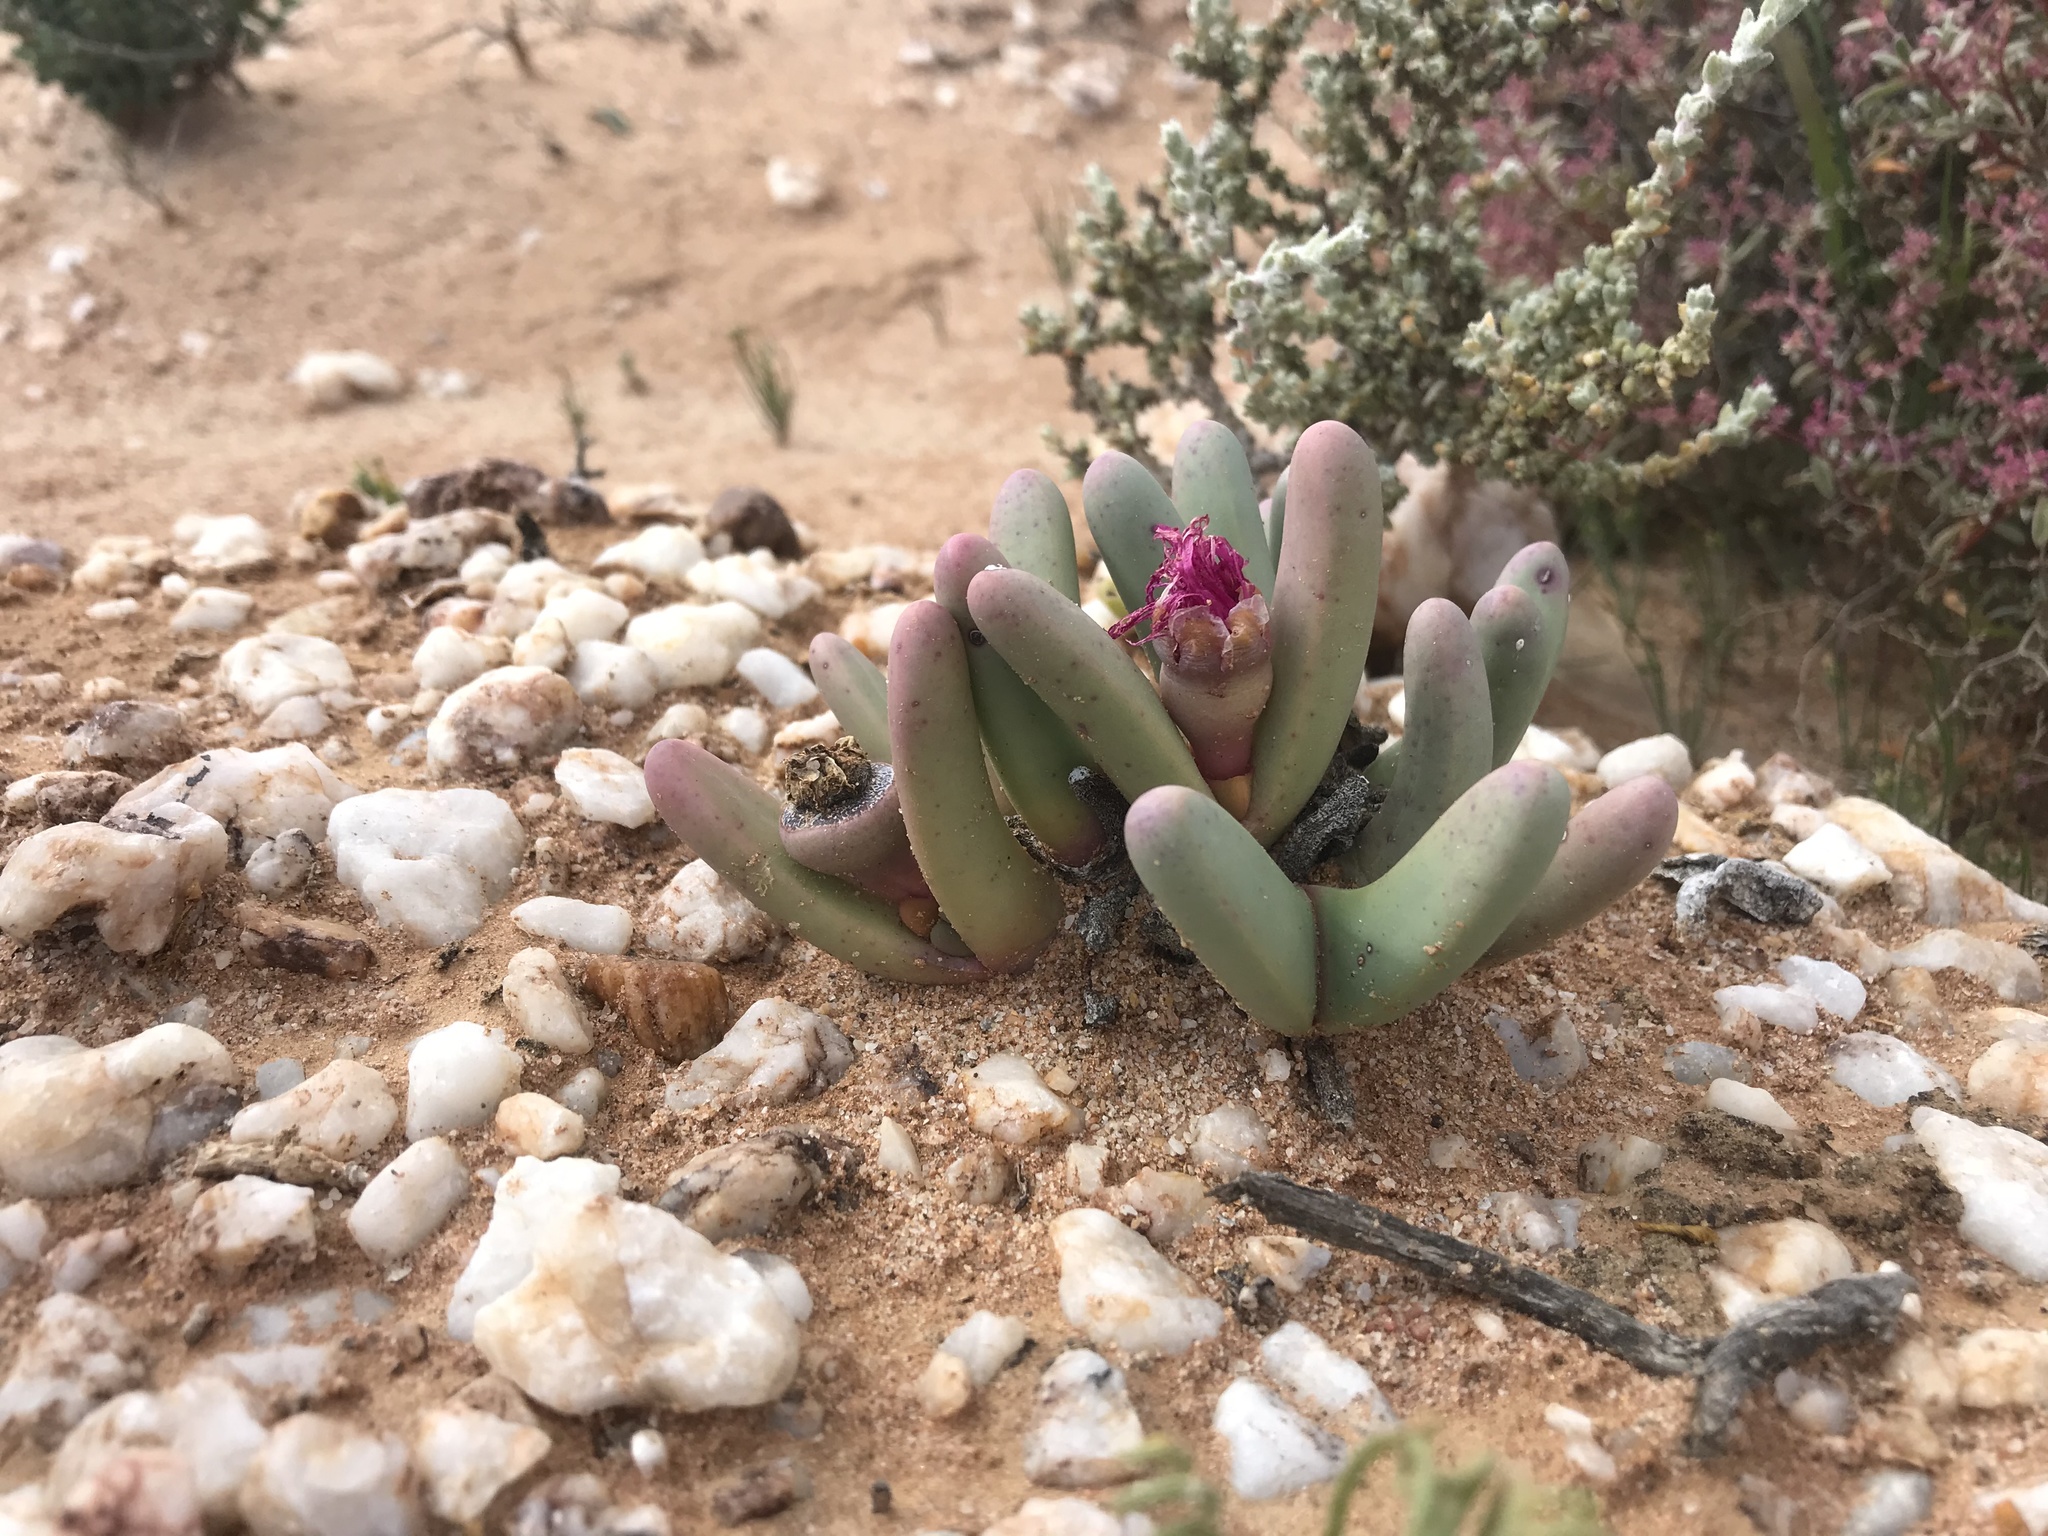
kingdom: Plantae
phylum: Tracheophyta
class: Magnoliopsida
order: Caryophyllales
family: Aizoaceae
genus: Argyroderma
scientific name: Argyroderma fissum
